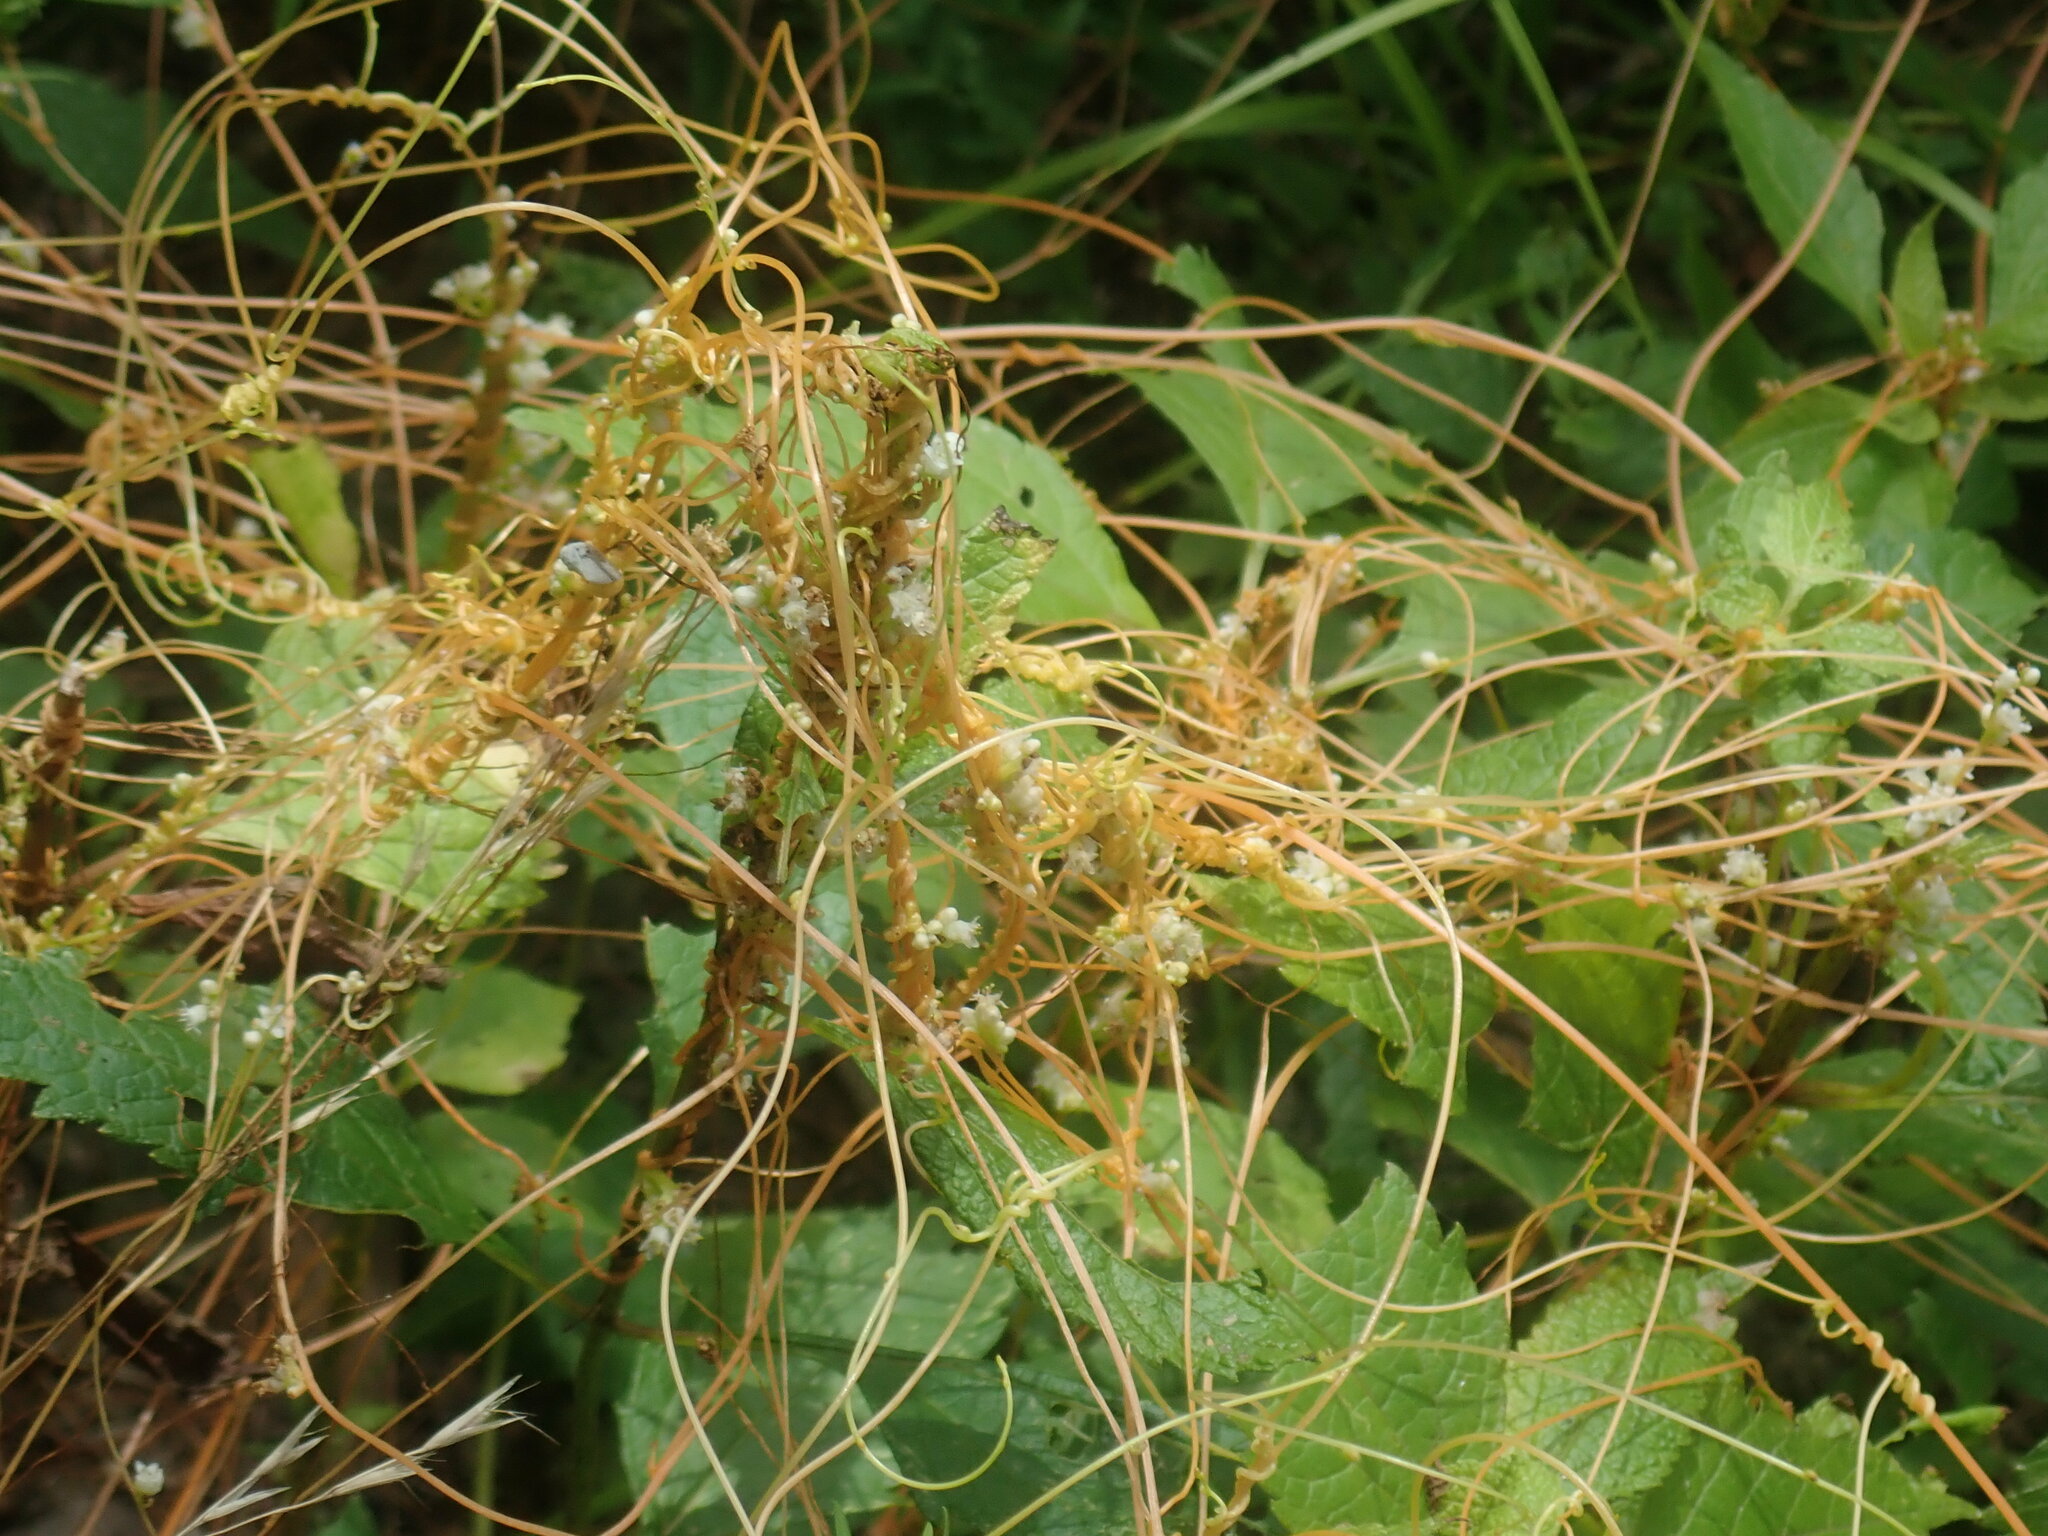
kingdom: Plantae
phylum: Tracheophyta
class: Magnoliopsida
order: Solanales
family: Convolvulaceae
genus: Cuscuta
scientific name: Cuscuta
